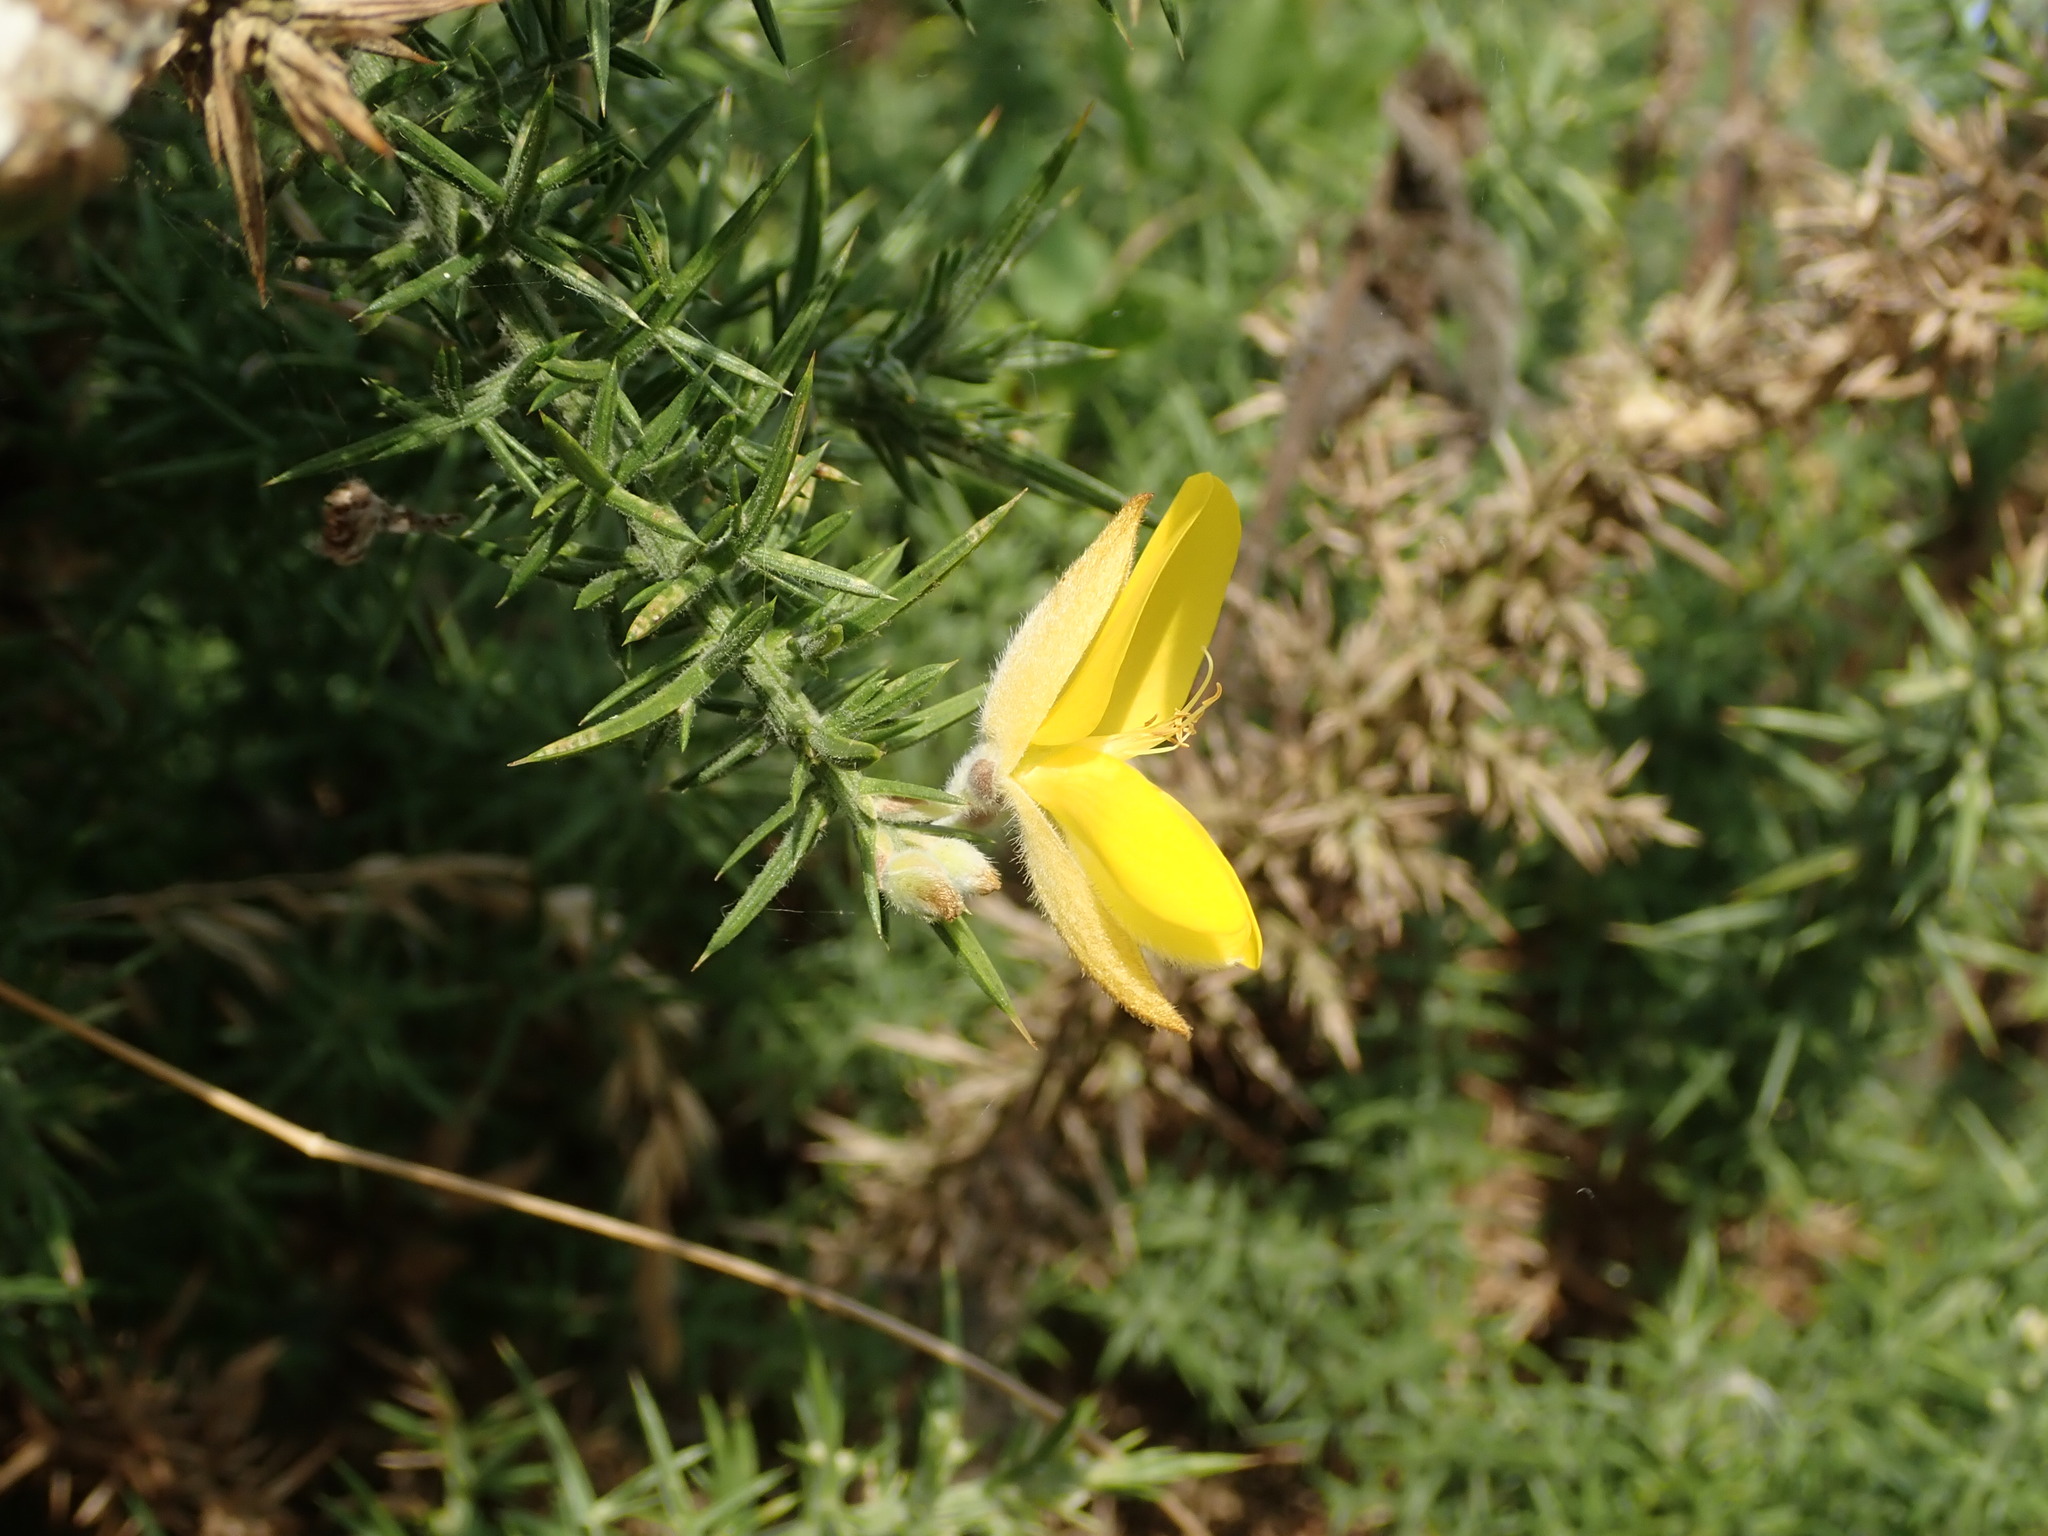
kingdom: Plantae
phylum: Tracheophyta
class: Magnoliopsida
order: Fabales
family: Fabaceae
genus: Ulex
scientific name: Ulex europaeus
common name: Common gorse
